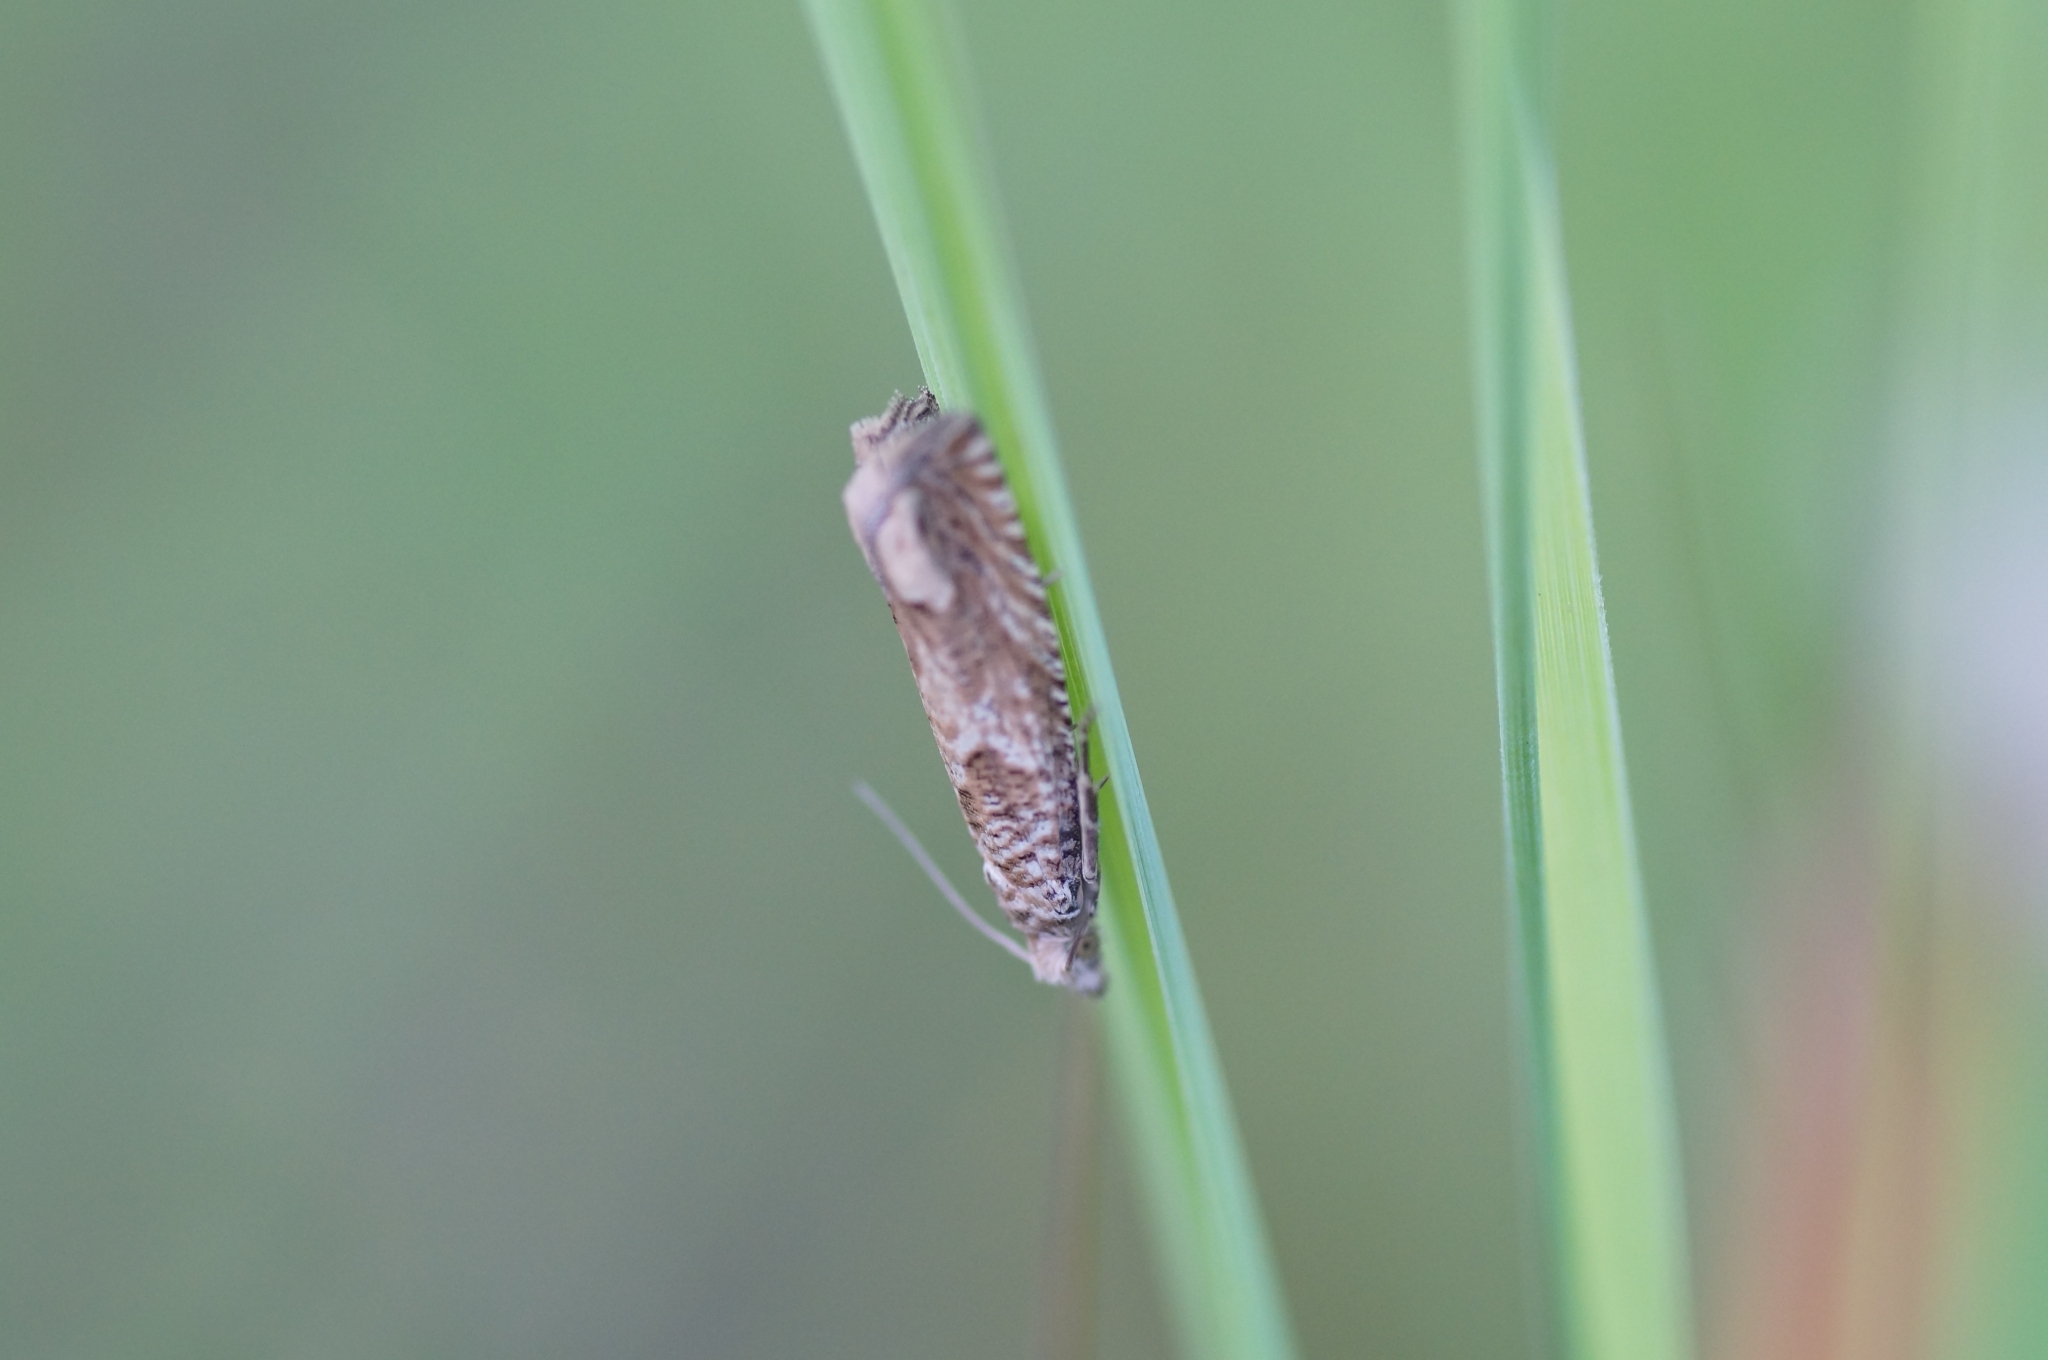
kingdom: Animalia
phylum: Arthropoda
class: Insecta
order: Lepidoptera
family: Tortricidae
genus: Pelochrista
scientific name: Pelochrista caecimaculana
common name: Chalk-hill bell
